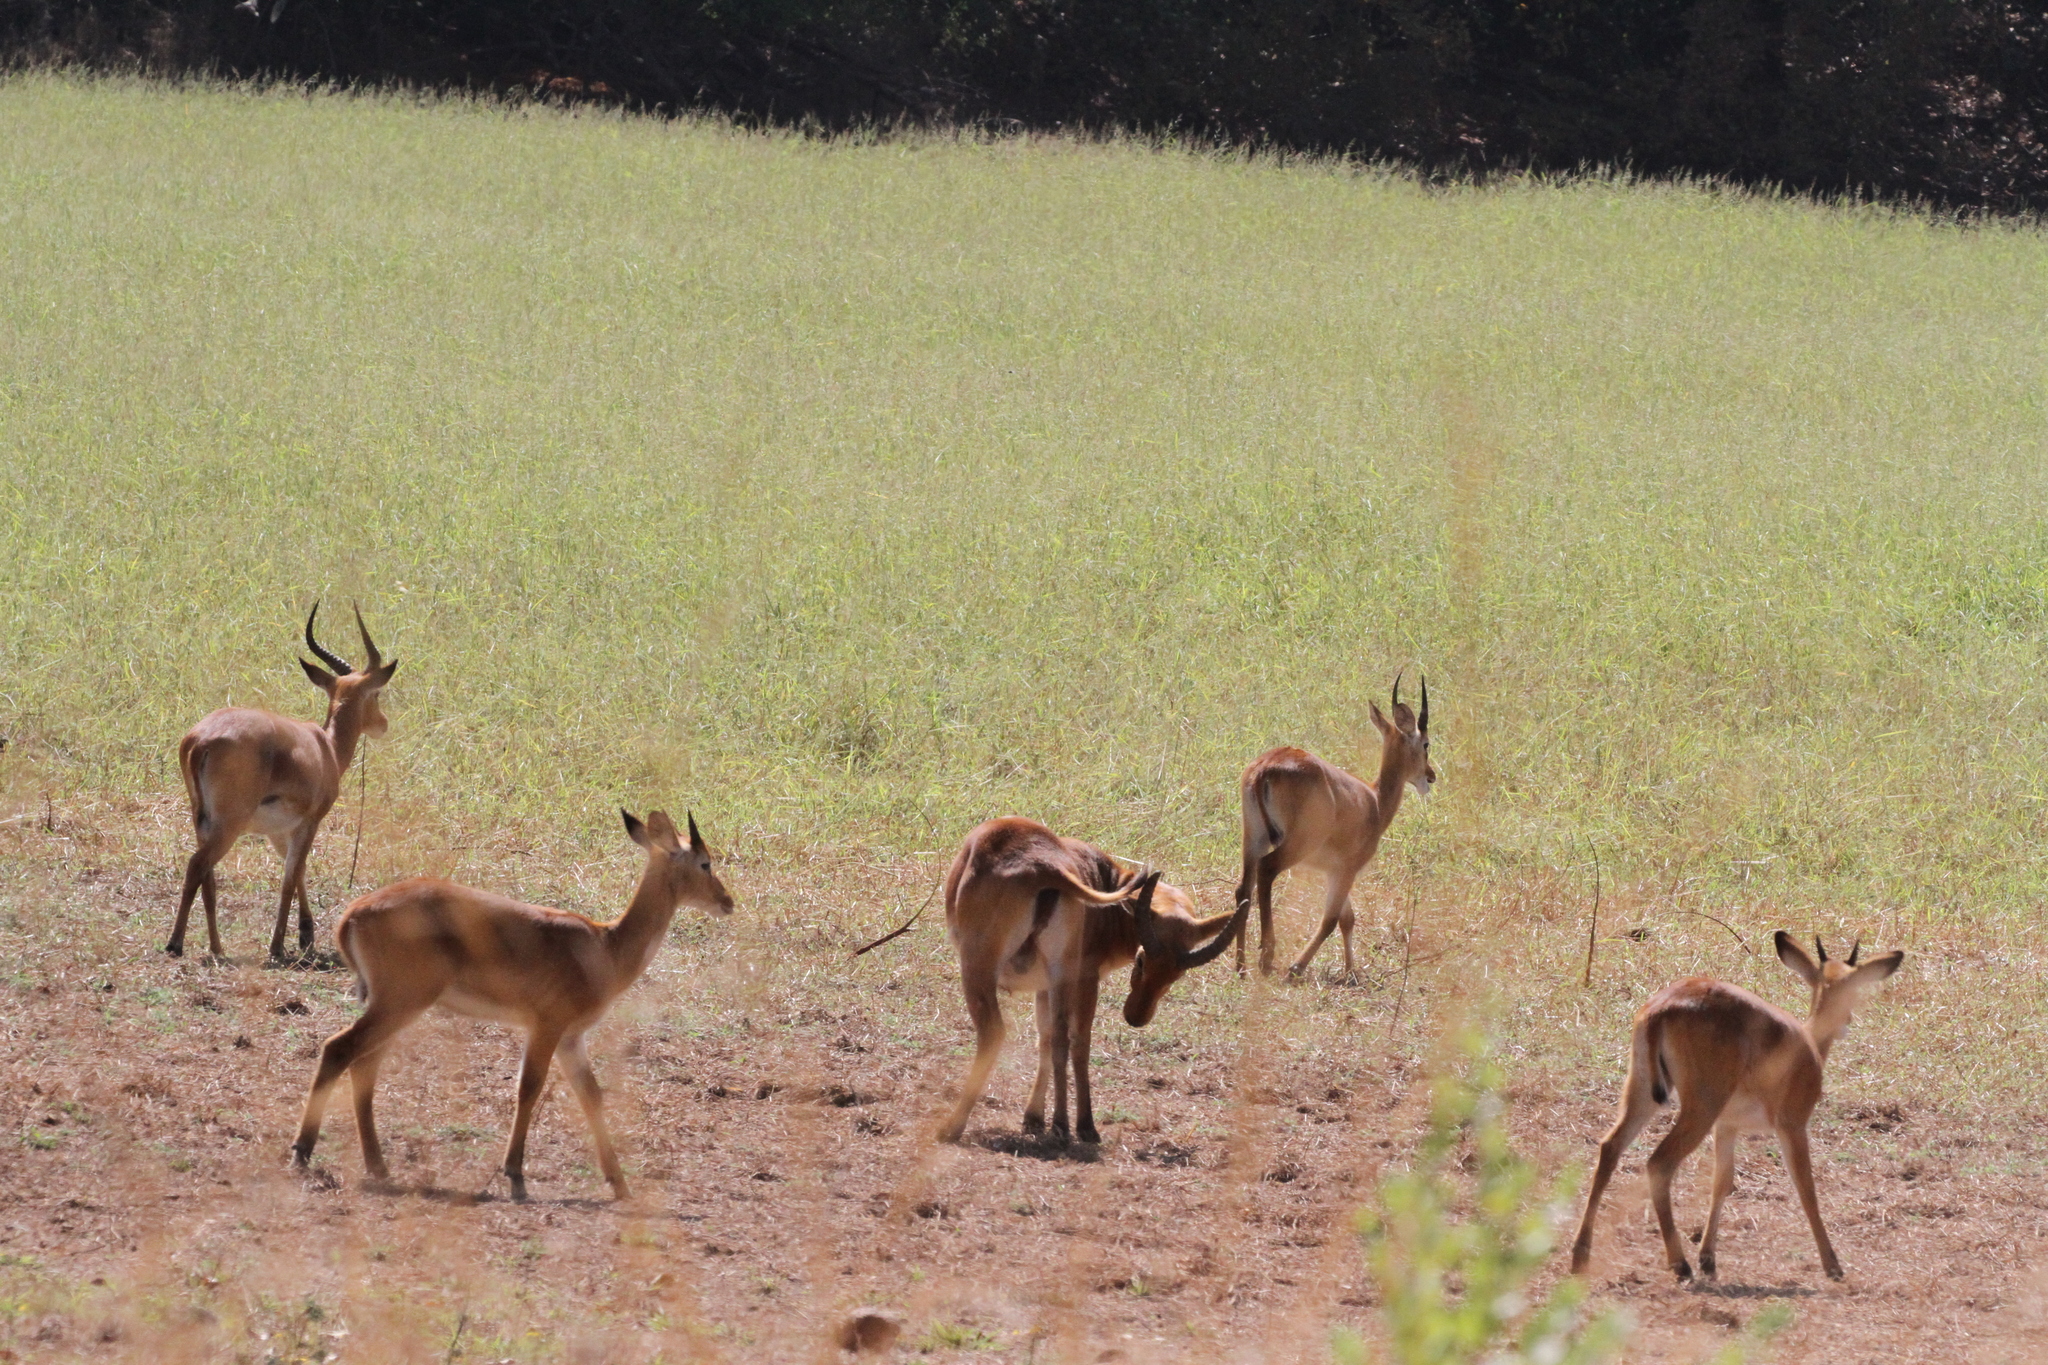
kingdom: Animalia
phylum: Chordata
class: Mammalia
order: Artiodactyla
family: Bovidae
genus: Kobus
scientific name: Kobus kob
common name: Kob
